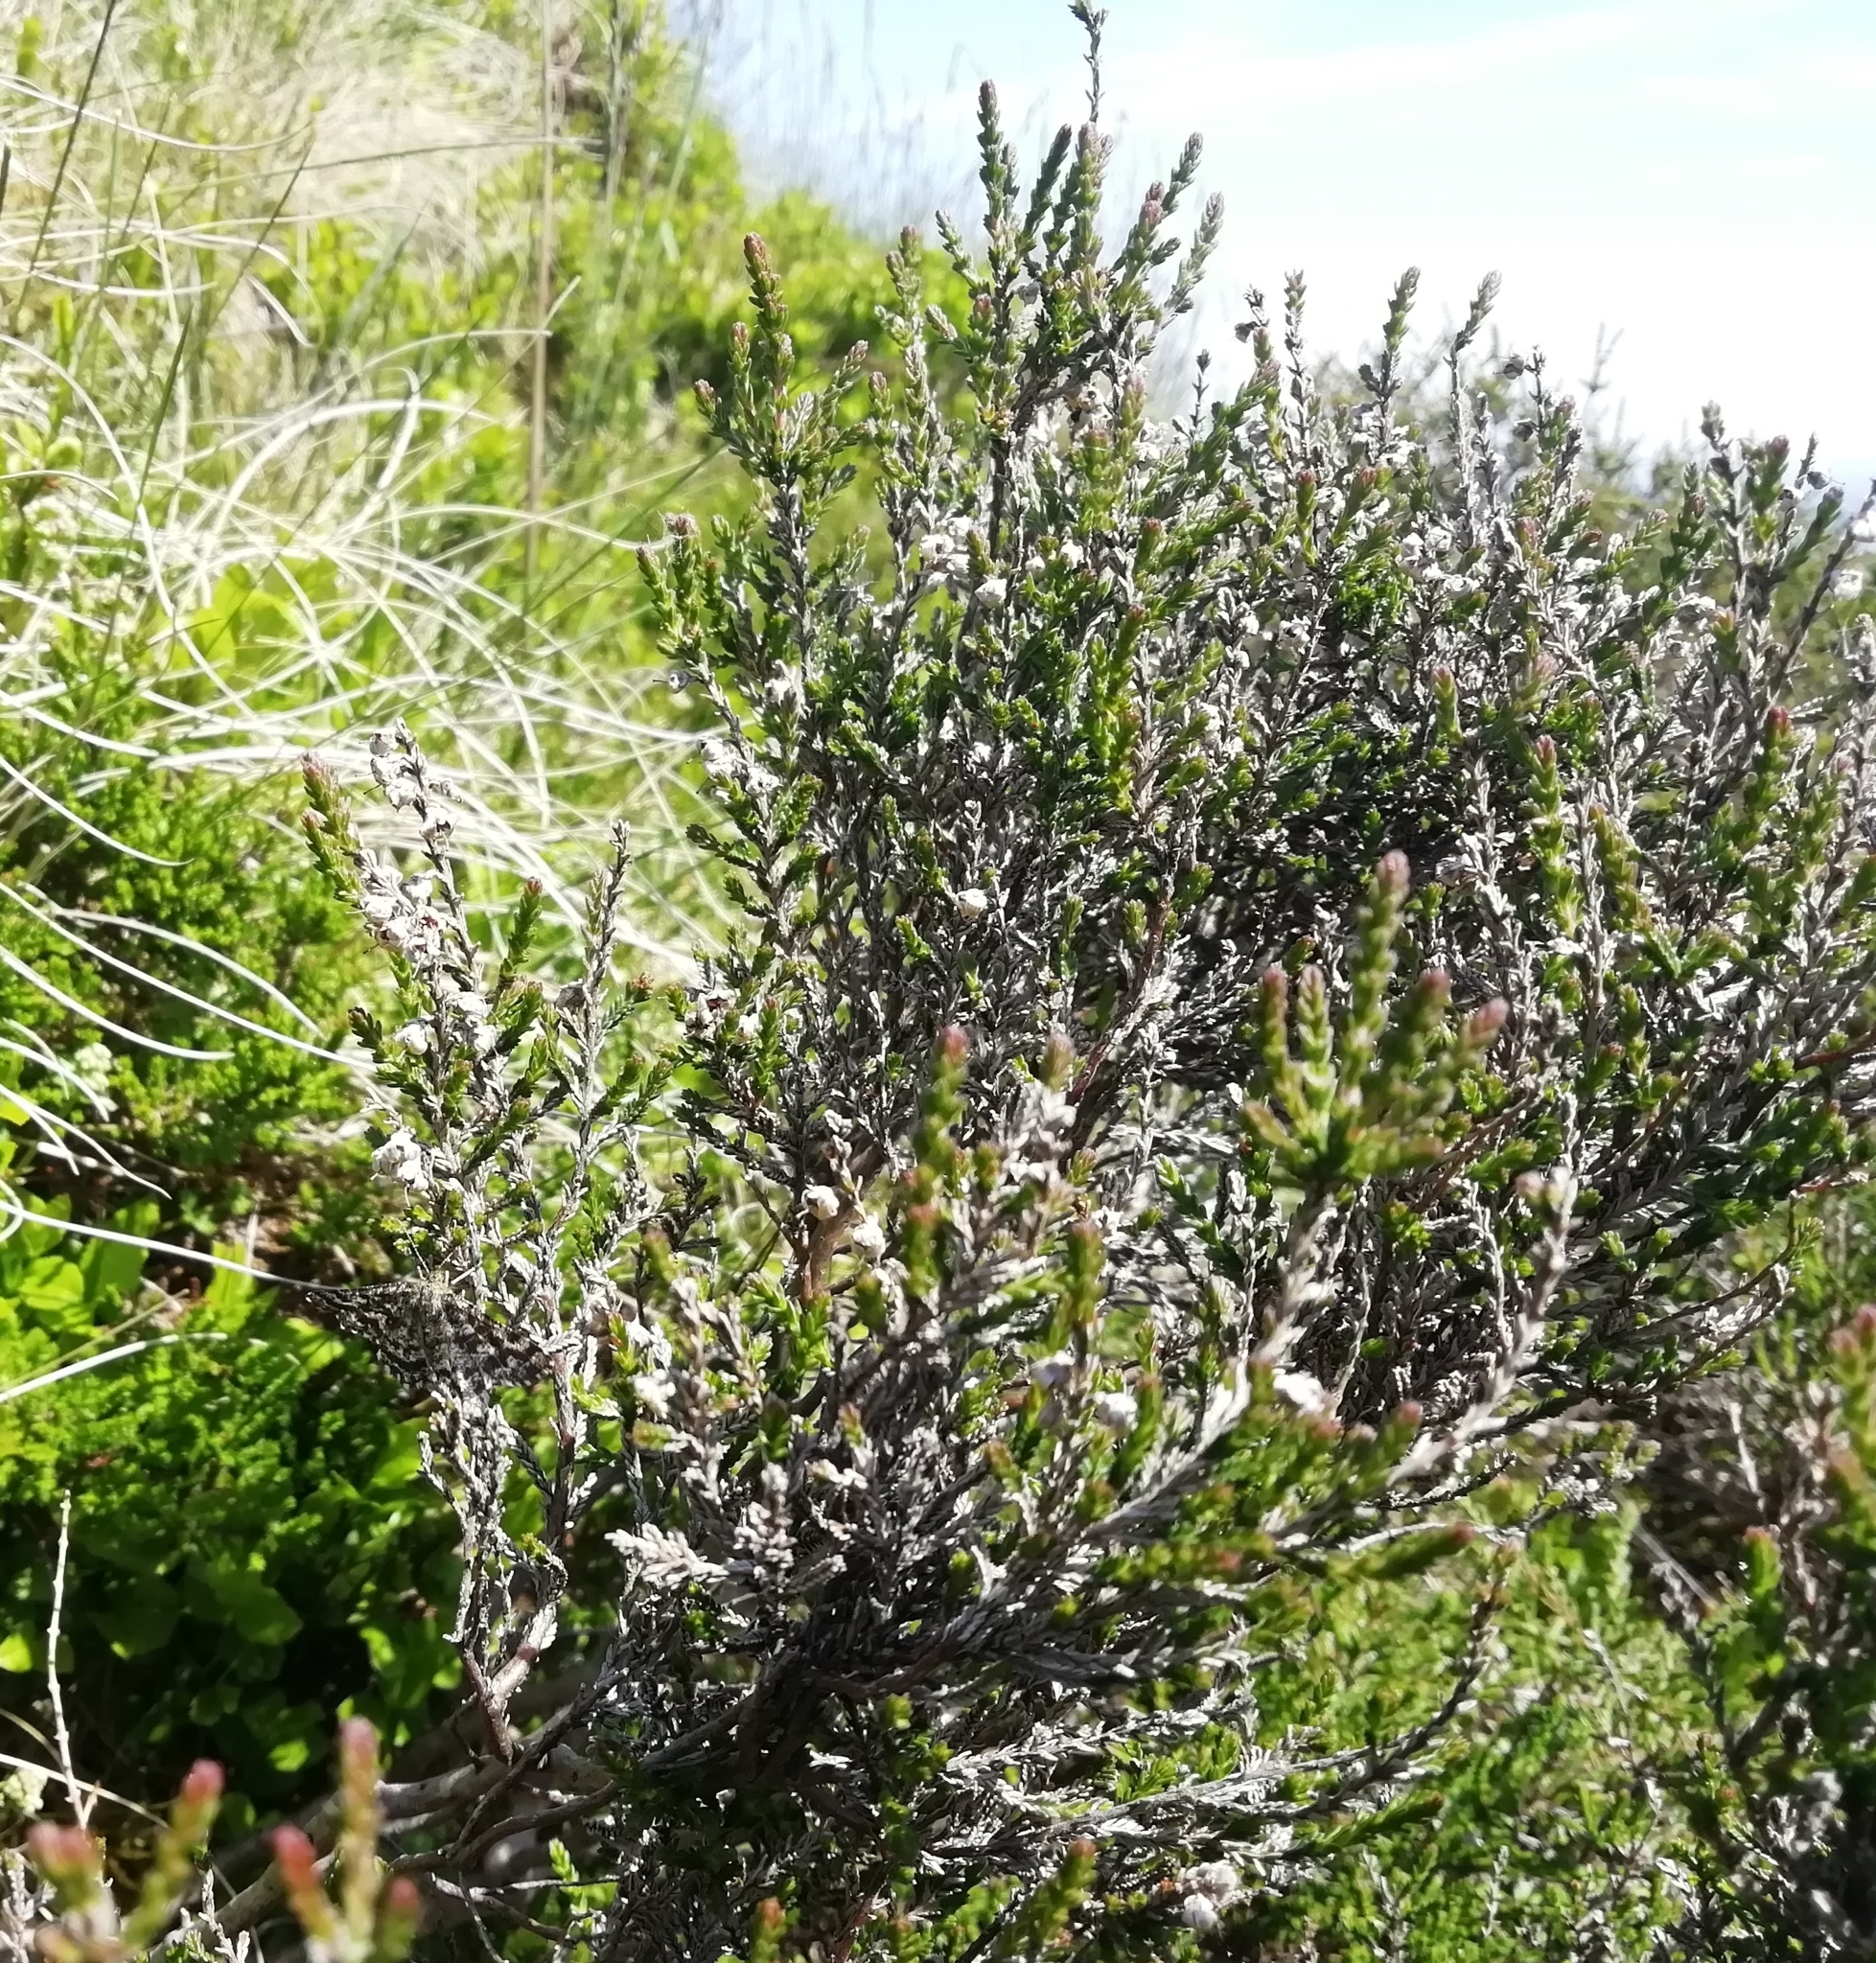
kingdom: Plantae
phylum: Tracheophyta
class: Magnoliopsida
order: Ericales
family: Ericaceae
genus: Calluna
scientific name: Calluna vulgaris
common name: Heather
